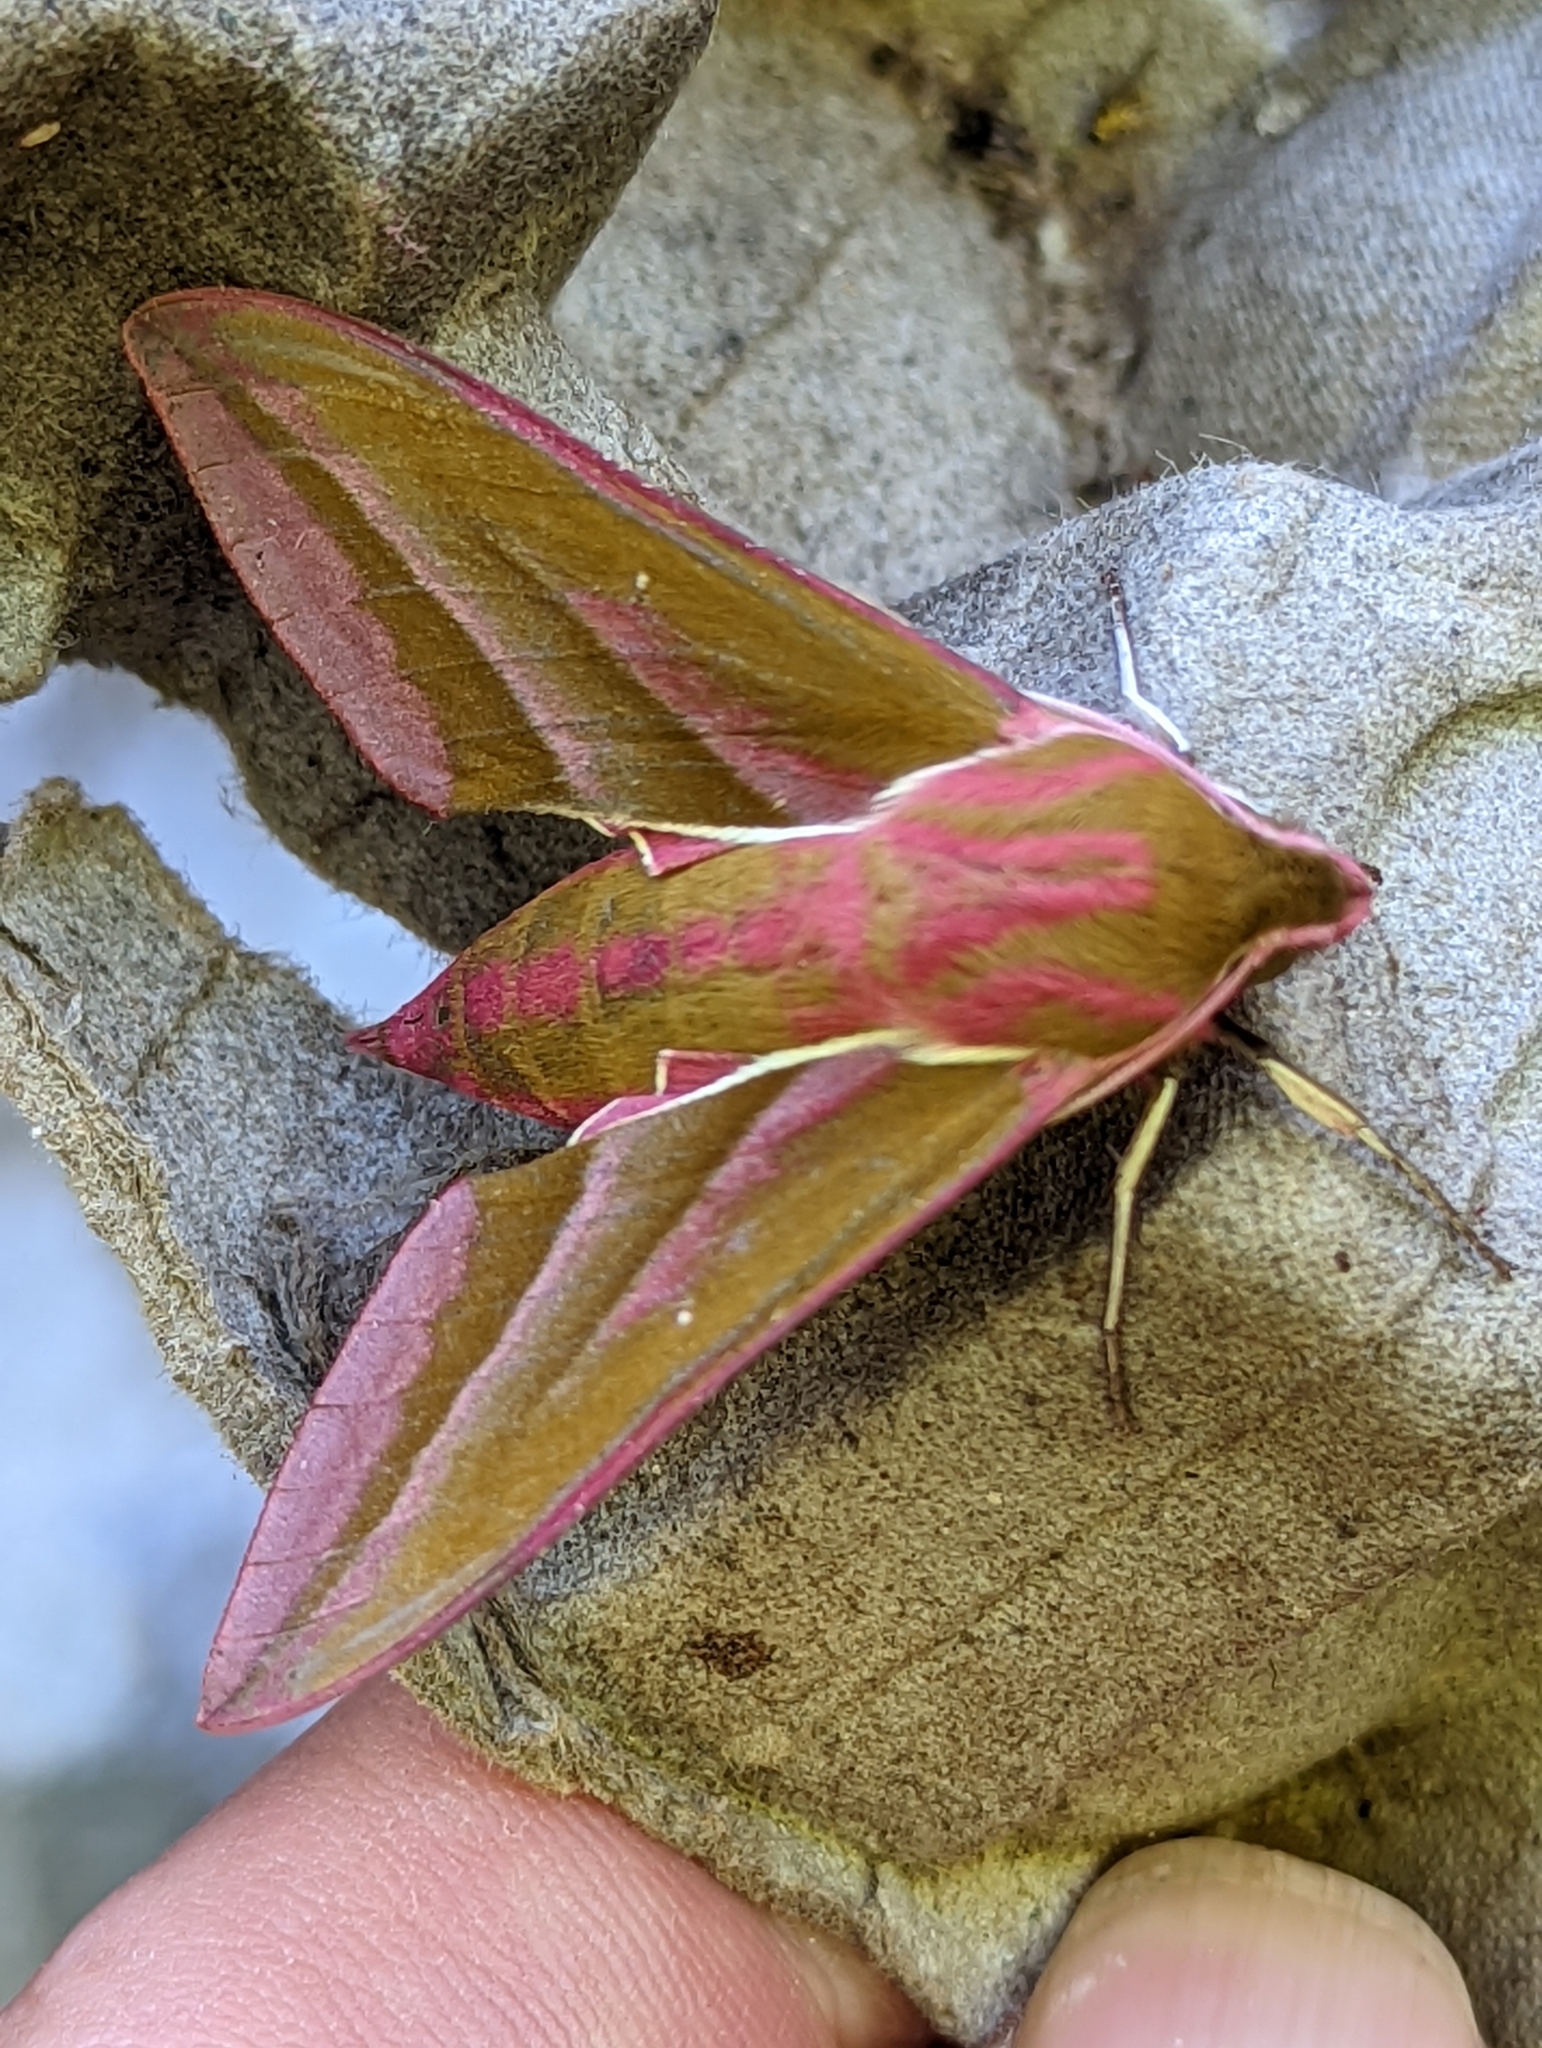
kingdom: Animalia
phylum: Arthropoda
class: Insecta
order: Lepidoptera
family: Sphingidae
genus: Deilephila
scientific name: Deilephila elpenor
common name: Elephant hawk-moth
